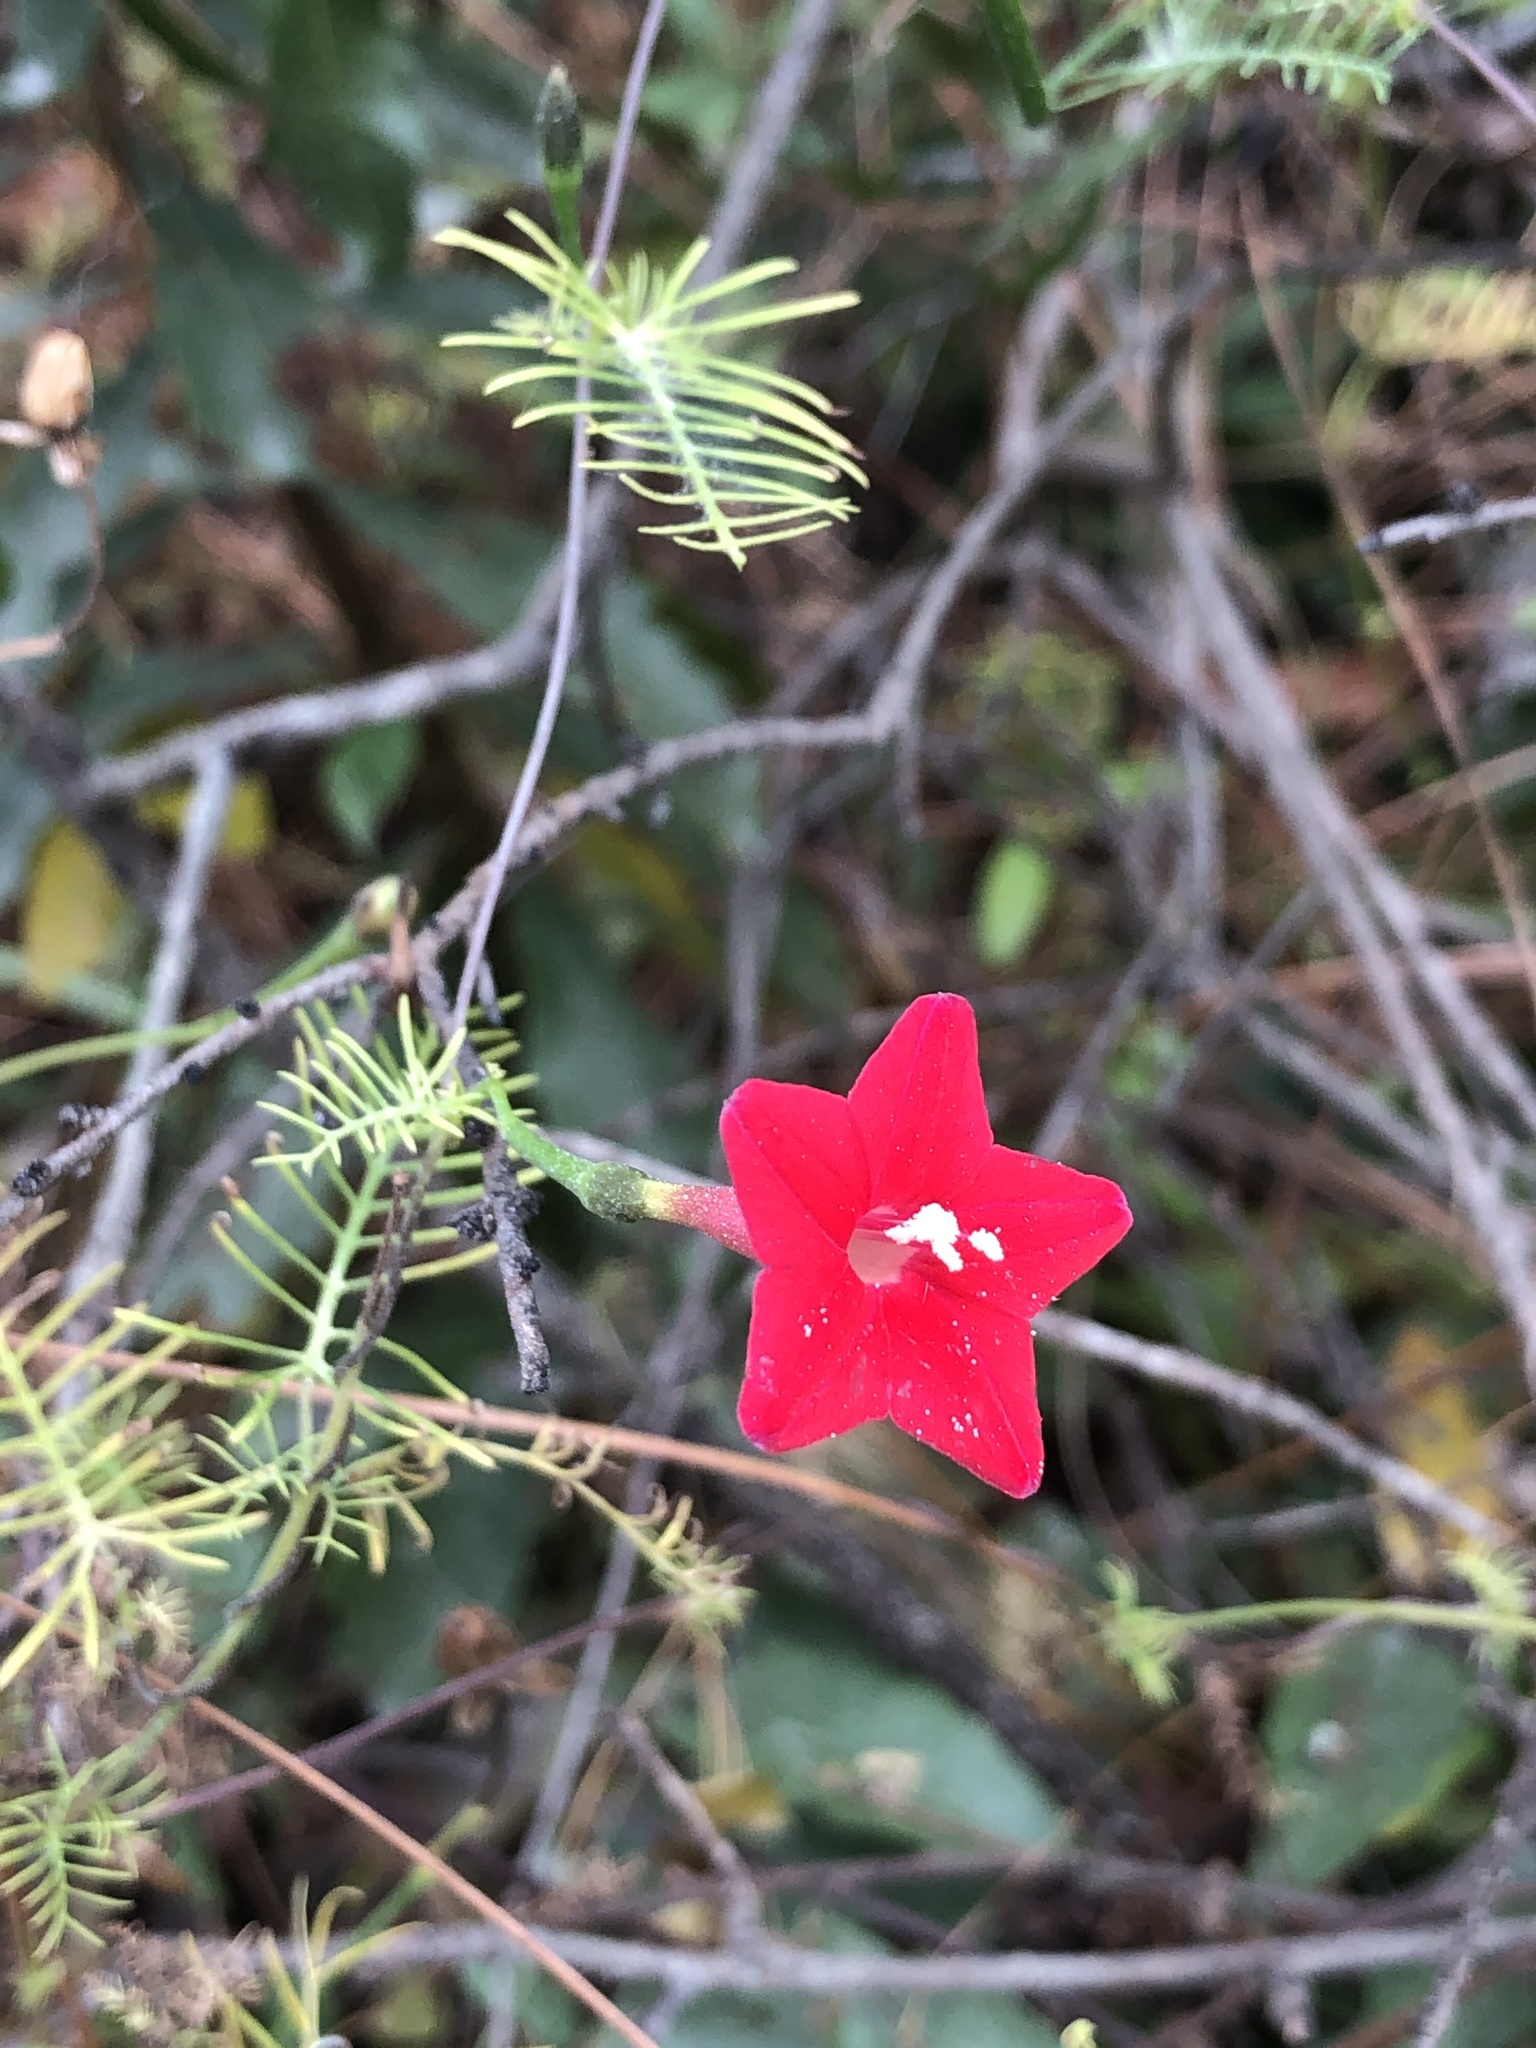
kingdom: Plantae
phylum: Tracheophyta
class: Magnoliopsida
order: Solanales
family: Convolvulaceae
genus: Ipomoea
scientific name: Ipomoea quamoclit
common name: Cypress vine
